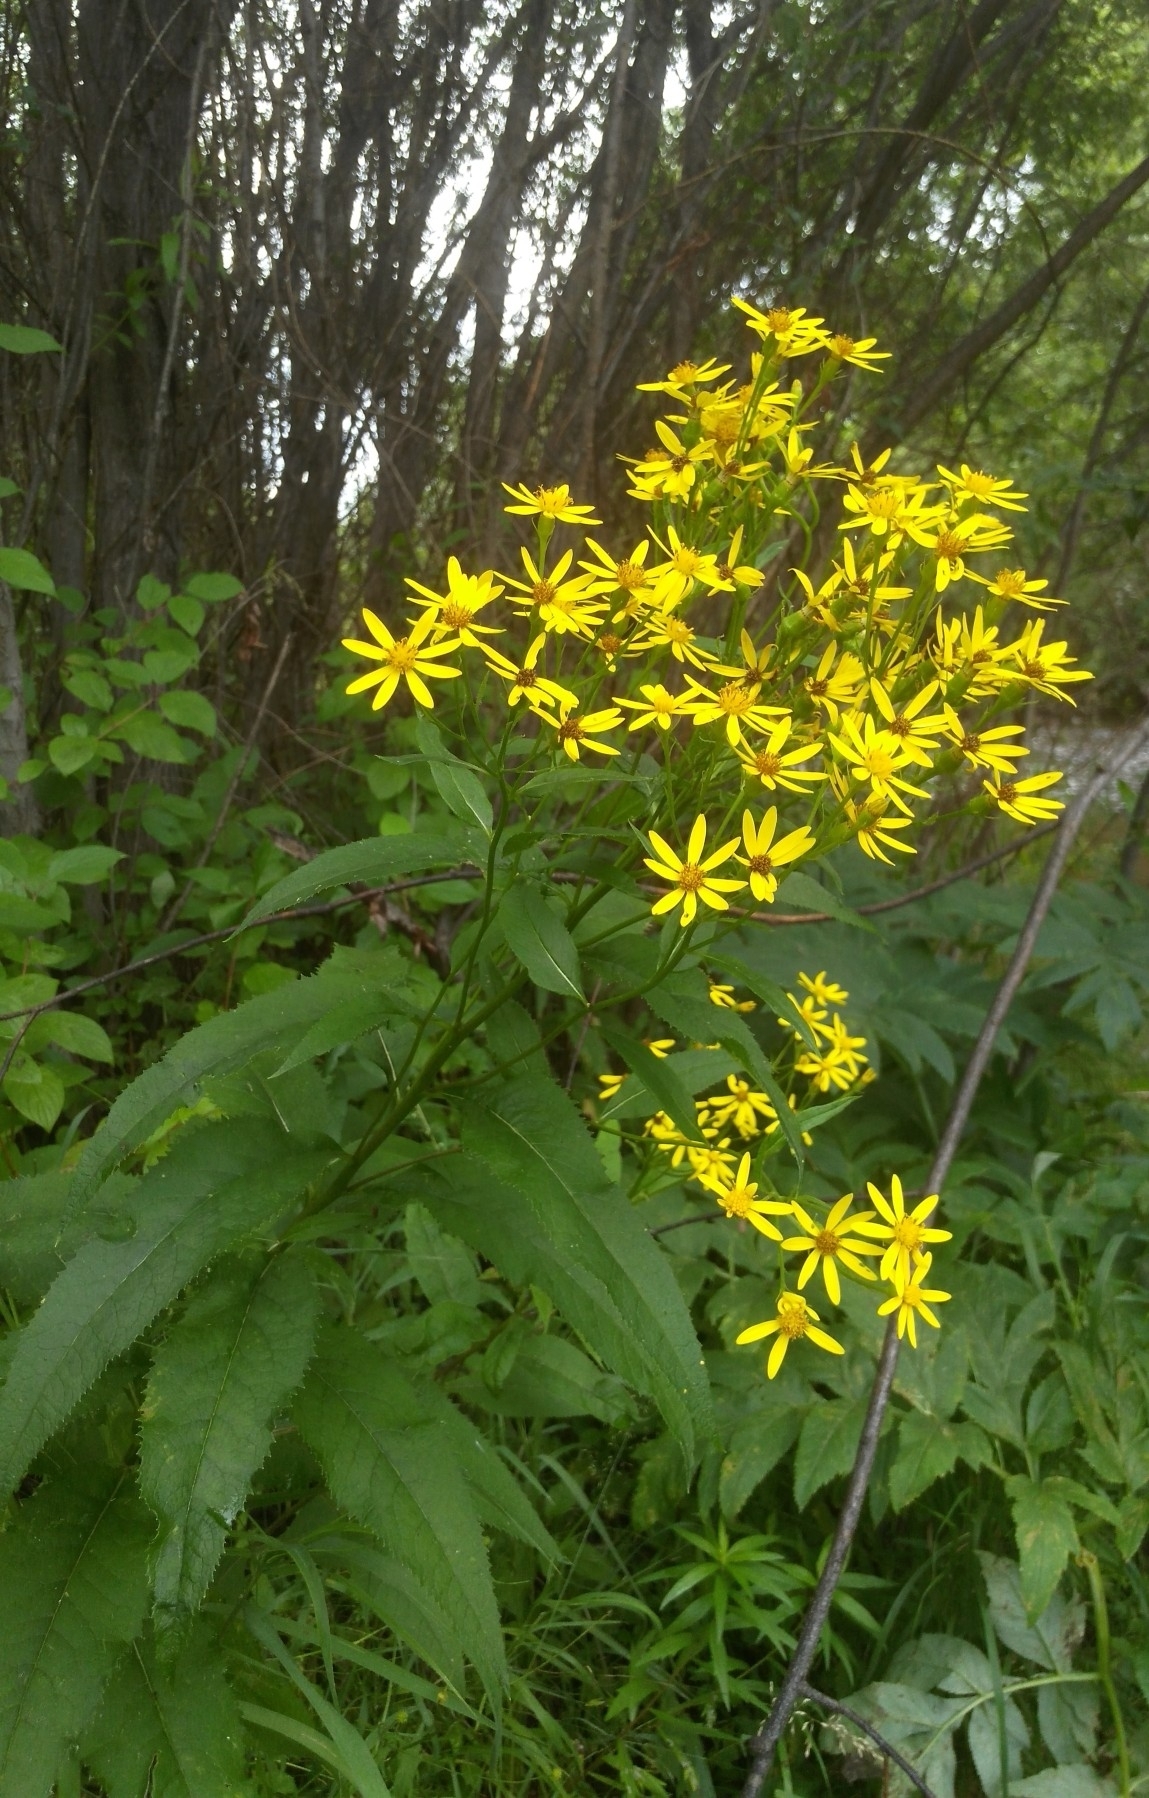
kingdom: Plantae
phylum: Tracheophyta
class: Magnoliopsida
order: Asterales
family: Asteraceae
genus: Senecio
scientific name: Senecio nemorensis
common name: Alpine ragwort
